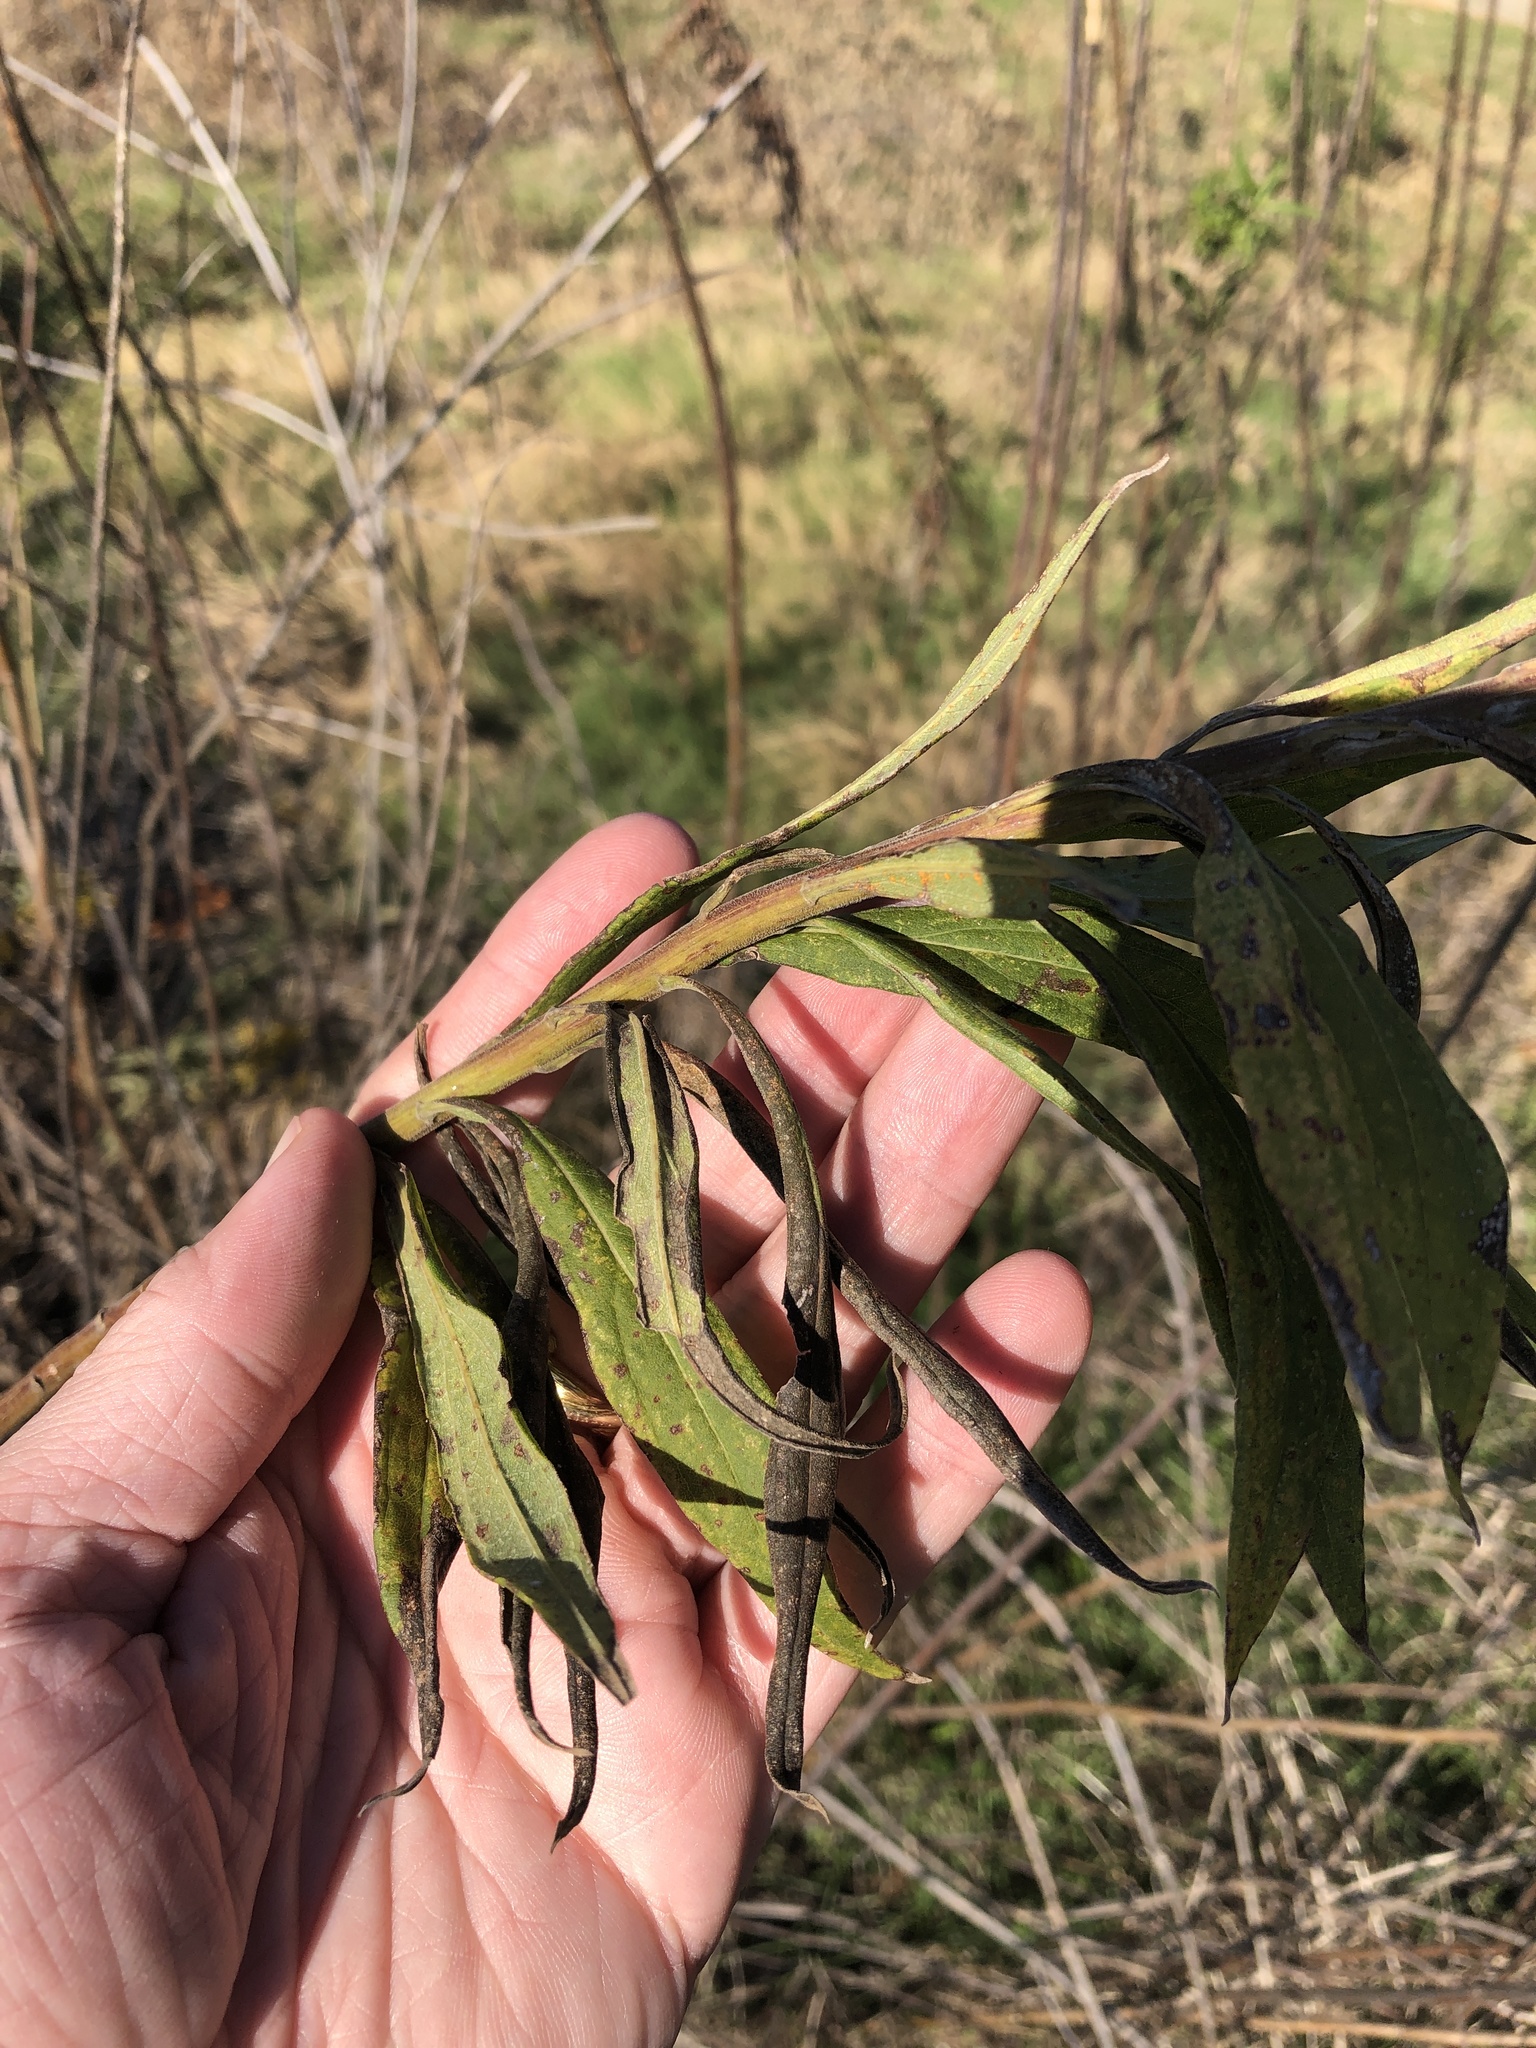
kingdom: Plantae
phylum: Tracheophyta
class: Magnoliopsida
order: Asterales
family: Asteraceae
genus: Solidago
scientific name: Solidago altissima
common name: Late goldenrod
